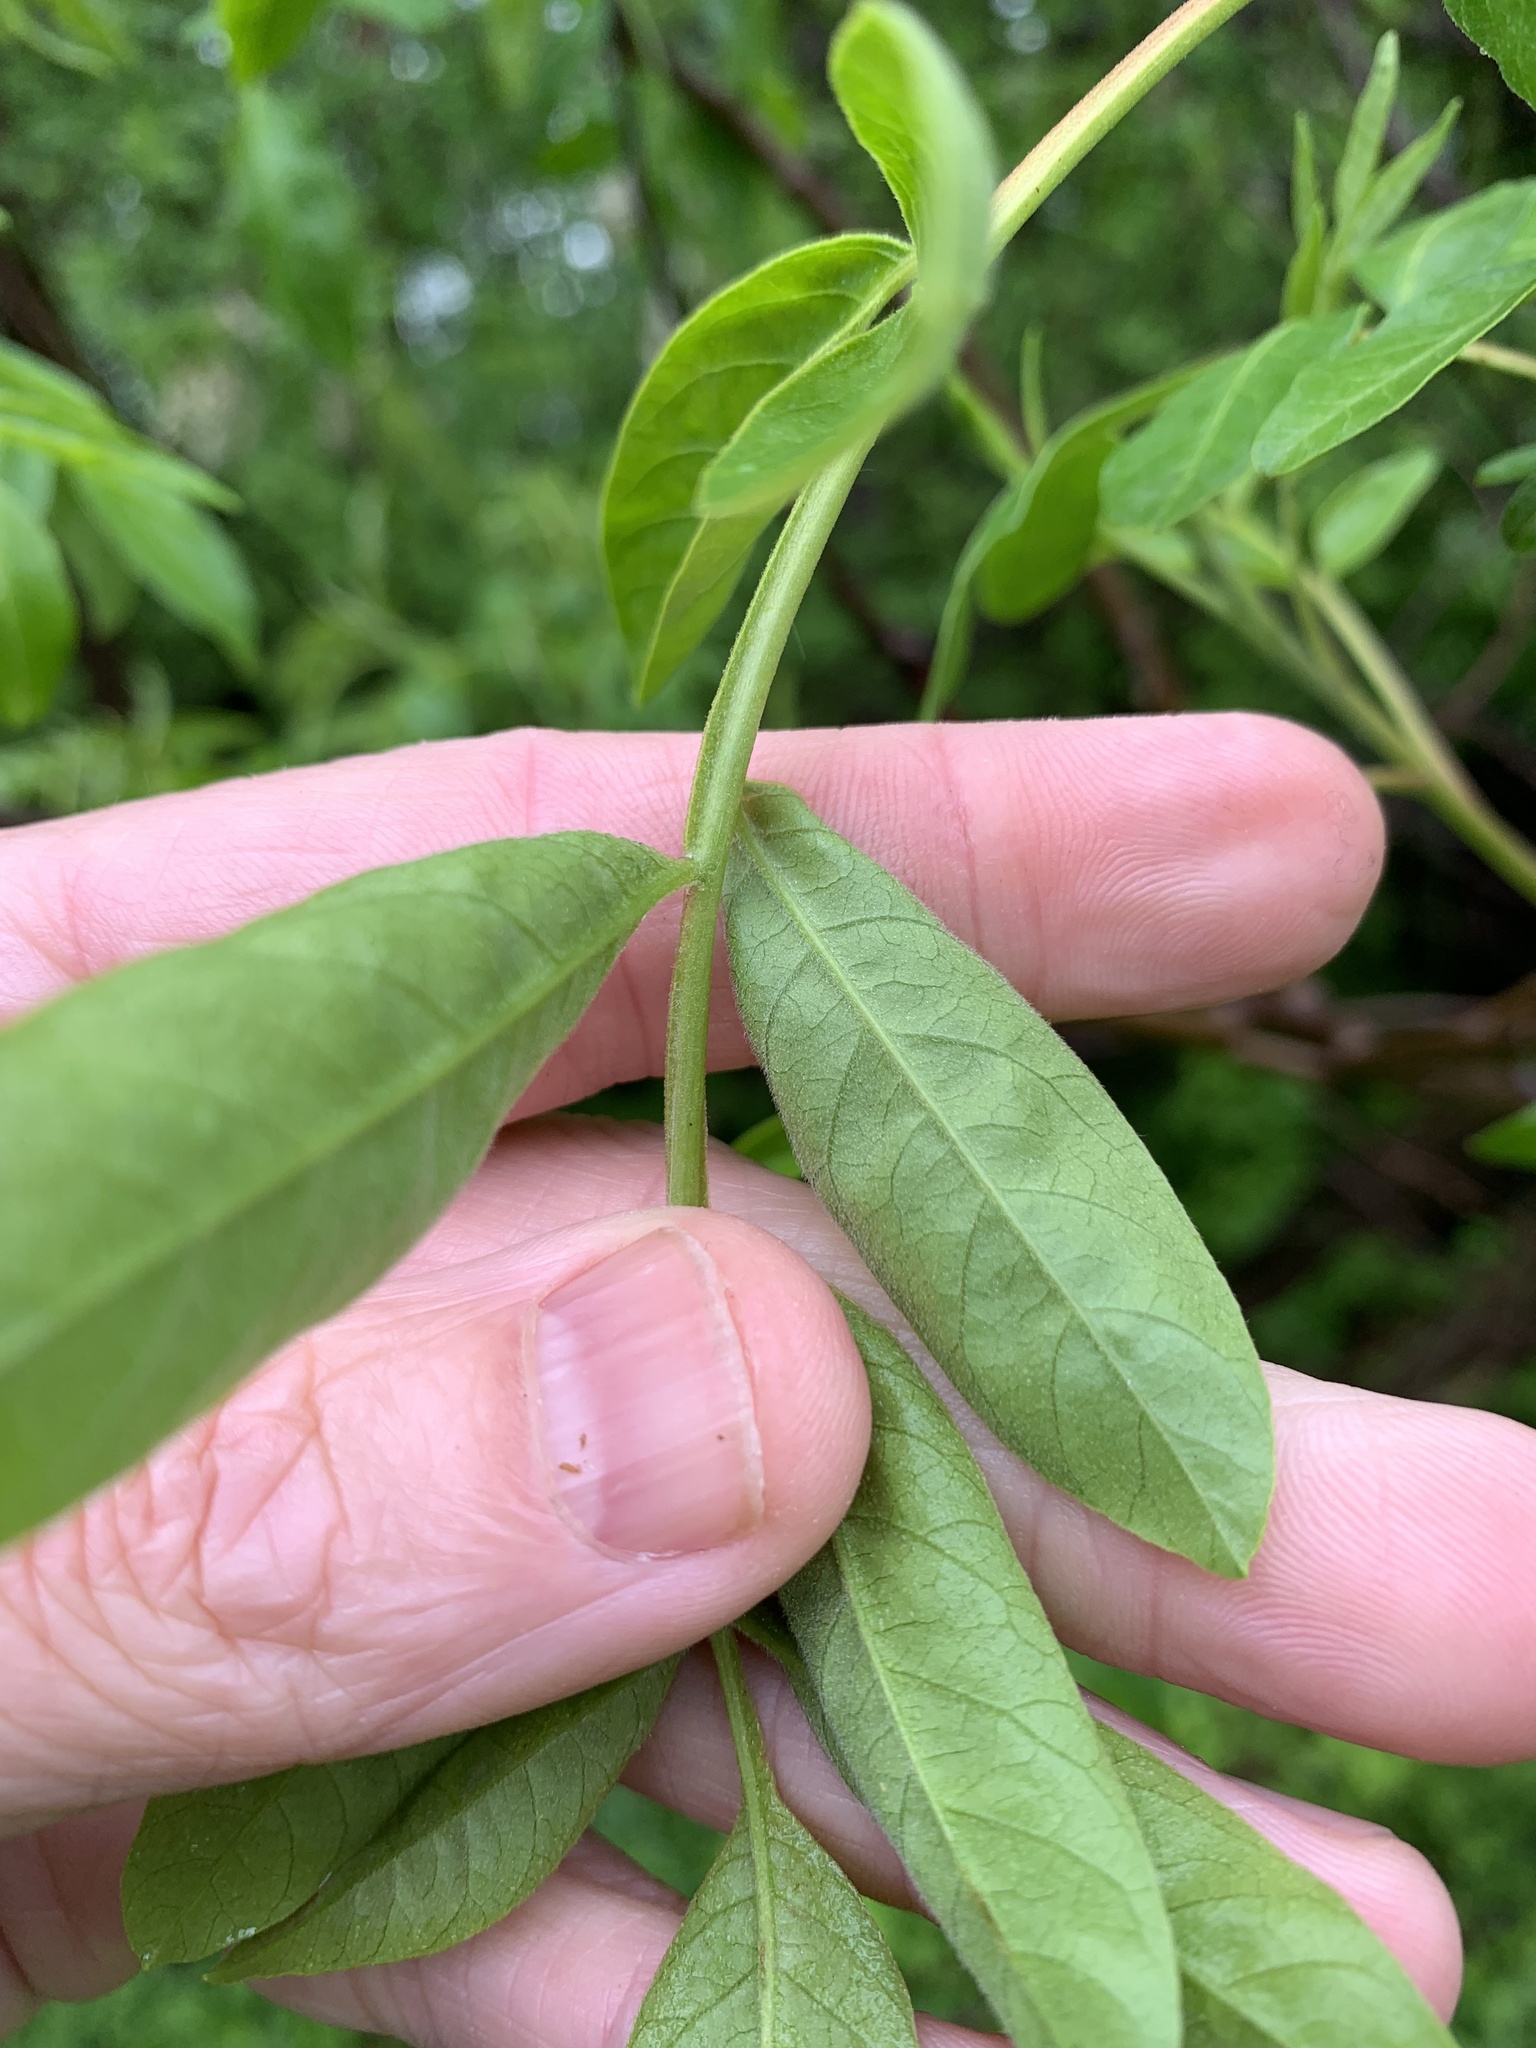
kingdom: Plantae
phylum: Tracheophyta
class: Magnoliopsida
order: Sapindales
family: Anacardiaceae
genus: Rhus
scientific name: Rhus copallina
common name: Shining sumac
